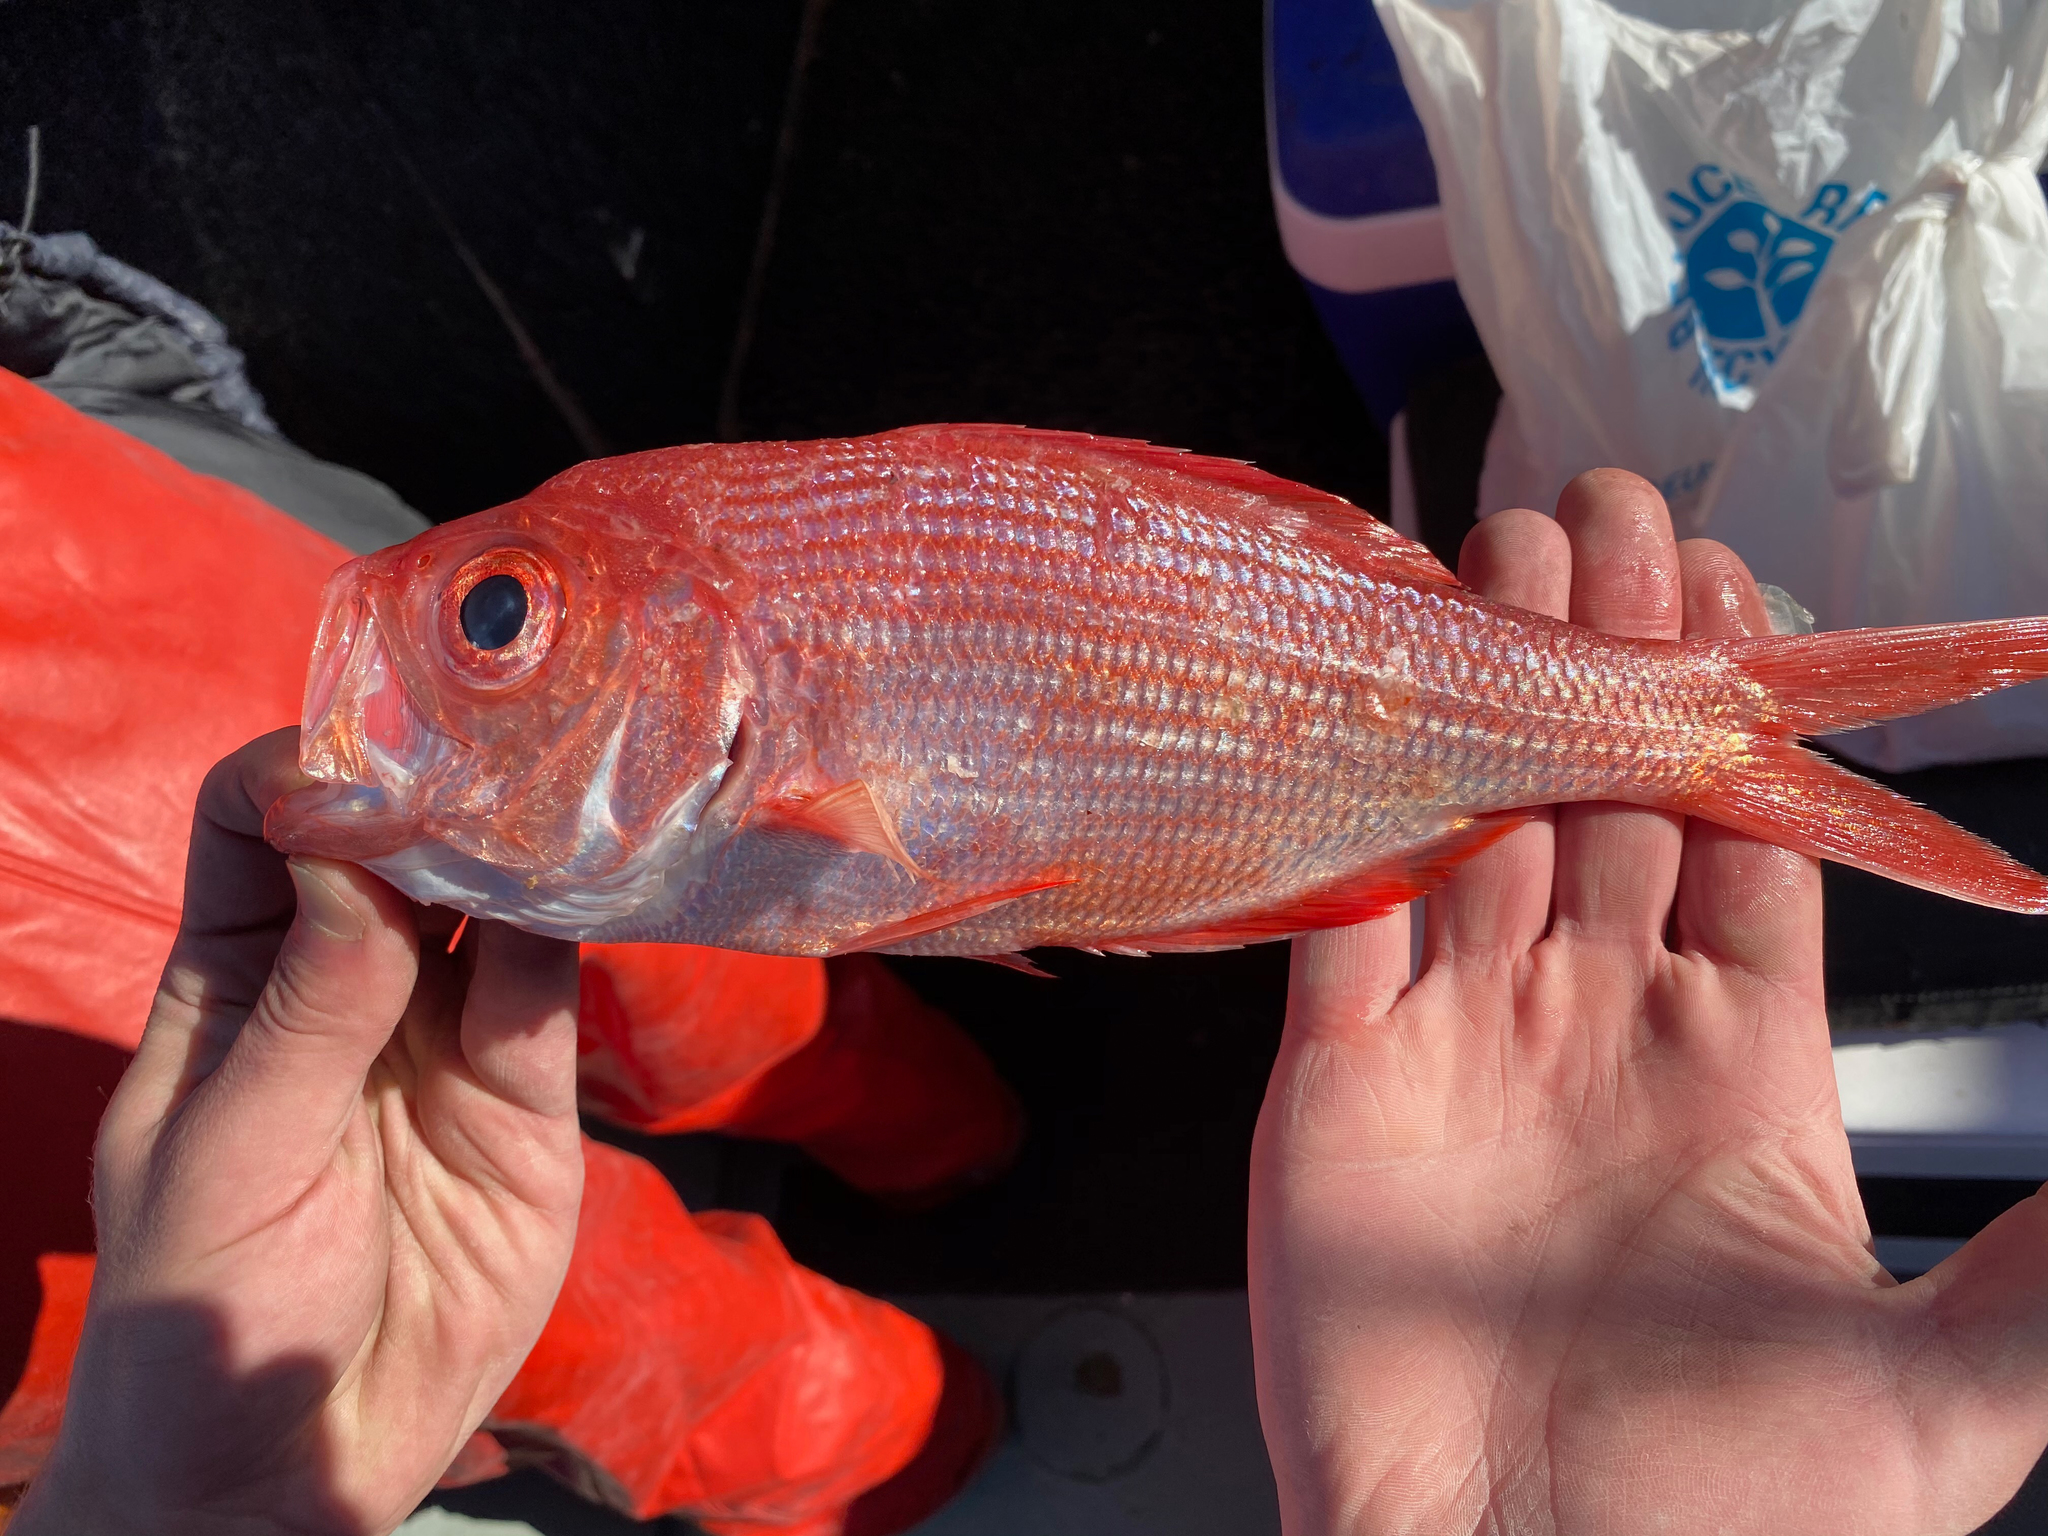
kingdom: Animalia
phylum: Chordata
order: Beryciformes
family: Berycidae
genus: Centroberyx
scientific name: Centroberyx lineatus
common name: Kingfish
